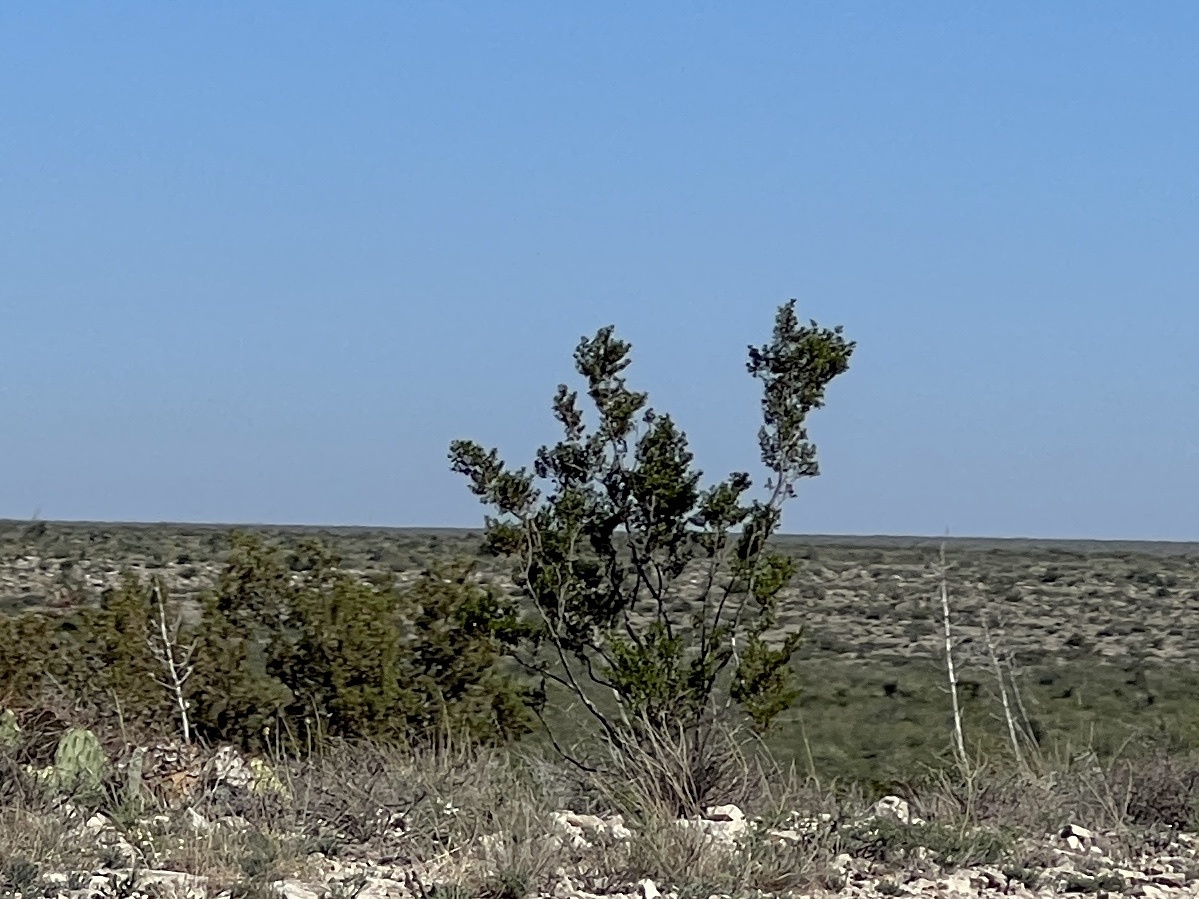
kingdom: Plantae
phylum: Tracheophyta
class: Magnoliopsida
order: Zygophyllales
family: Zygophyllaceae
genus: Larrea
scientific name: Larrea tridentata
